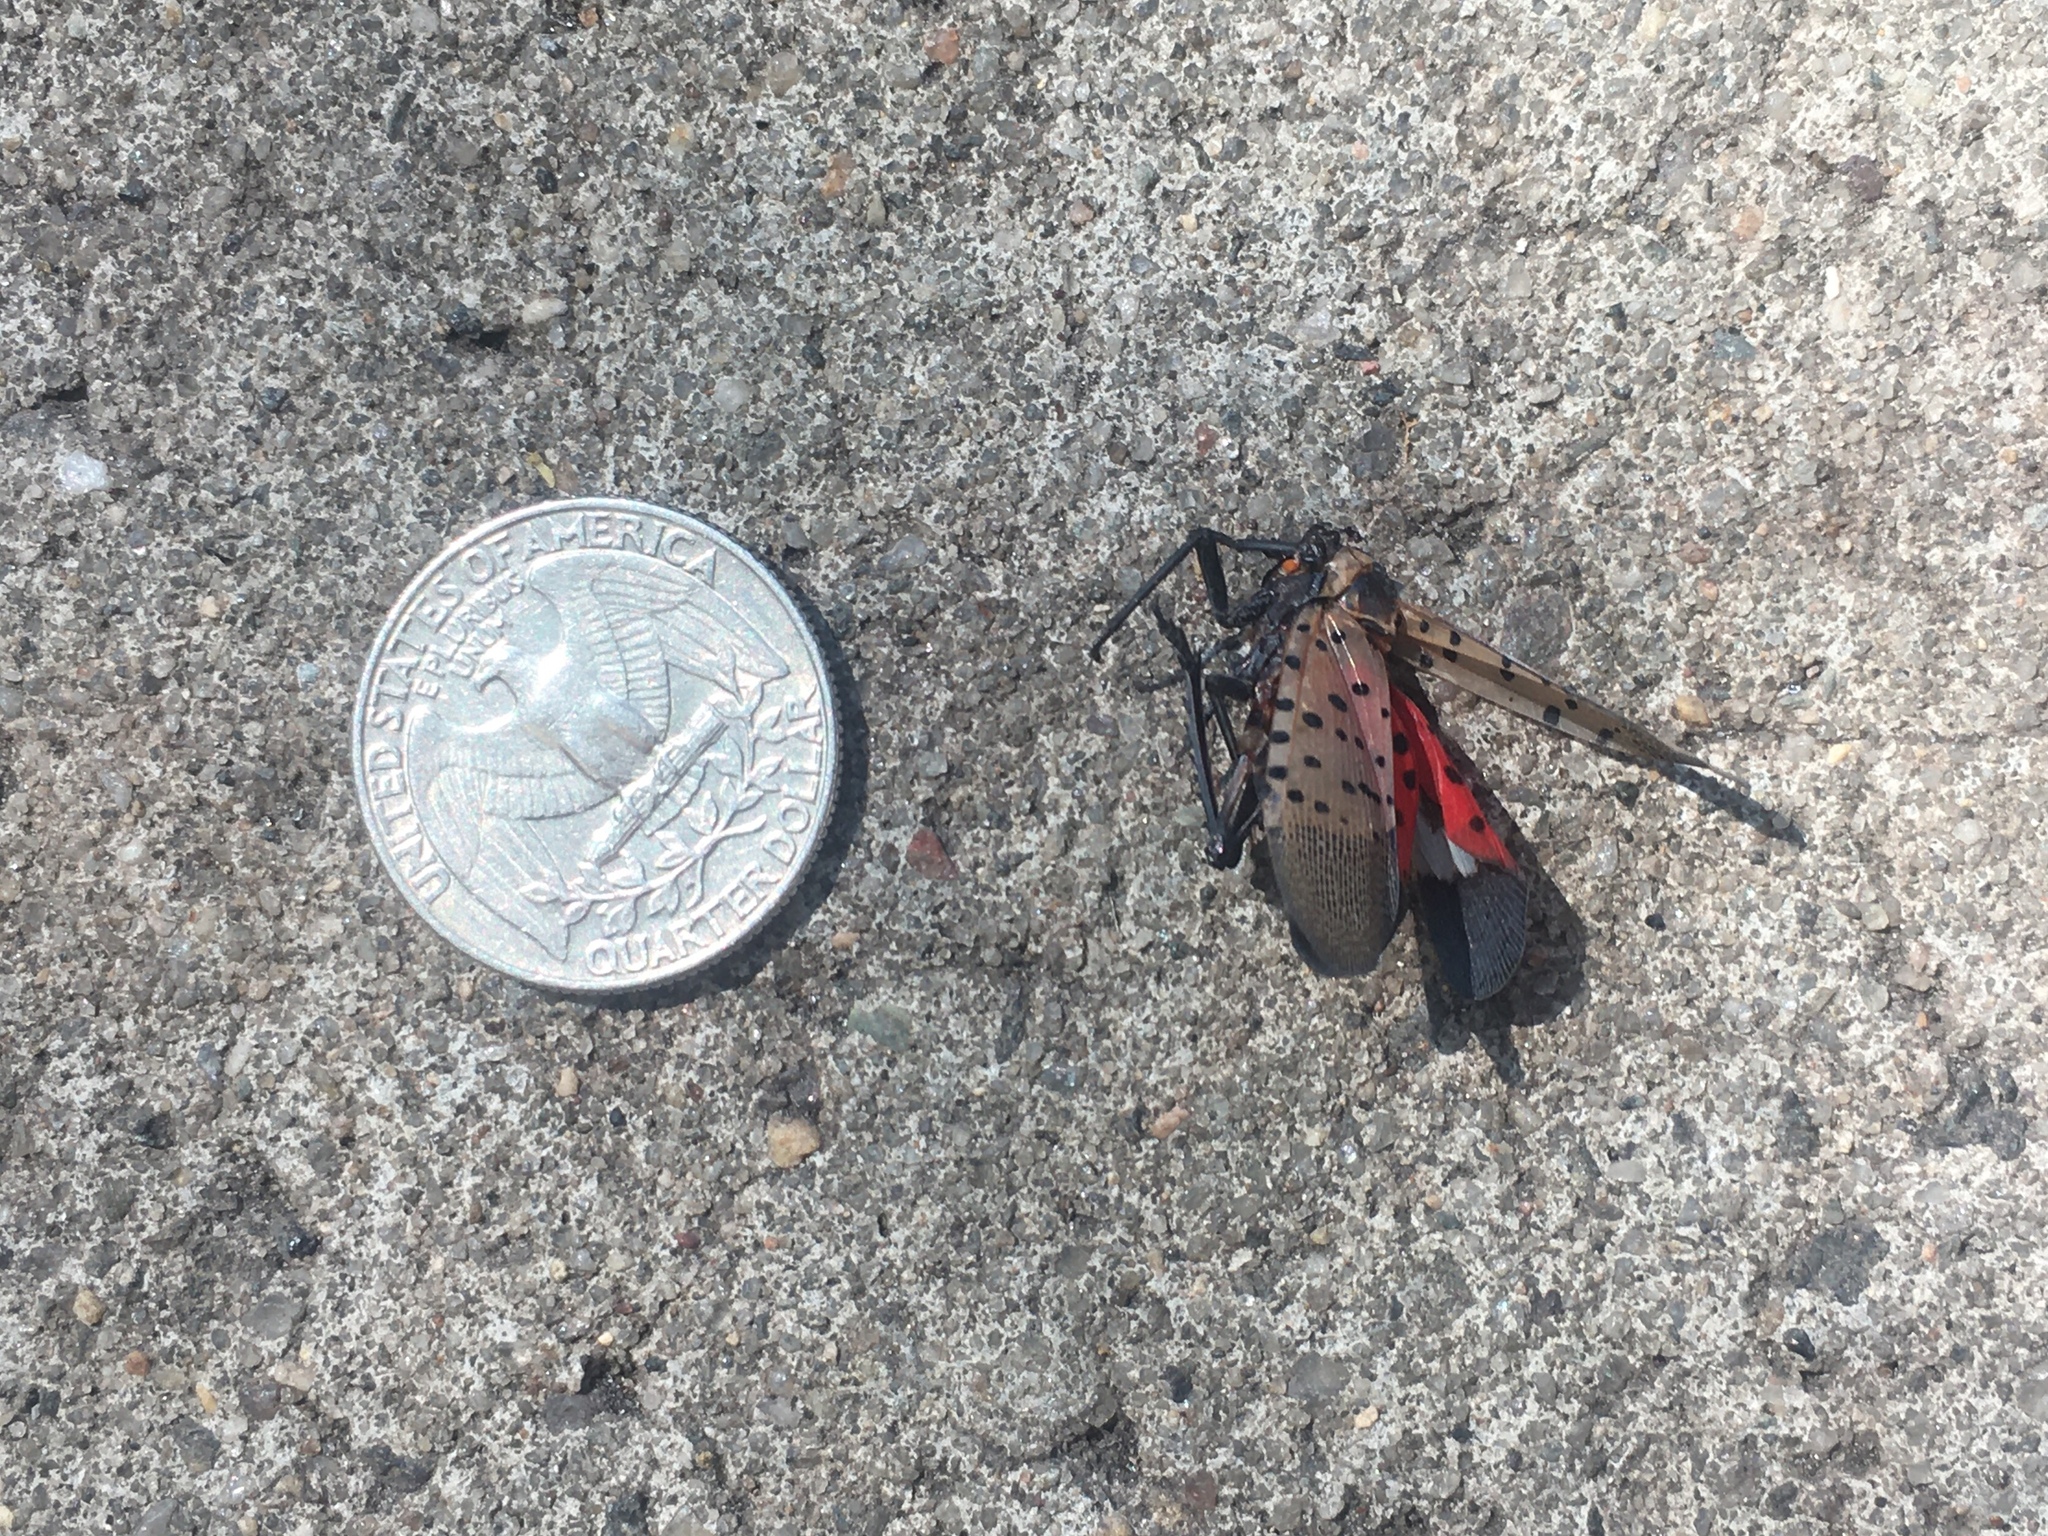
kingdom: Animalia
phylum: Arthropoda
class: Insecta
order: Hemiptera
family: Fulgoridae
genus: Lycorma
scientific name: Lycorma delicatula
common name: Spotted lanternfly
